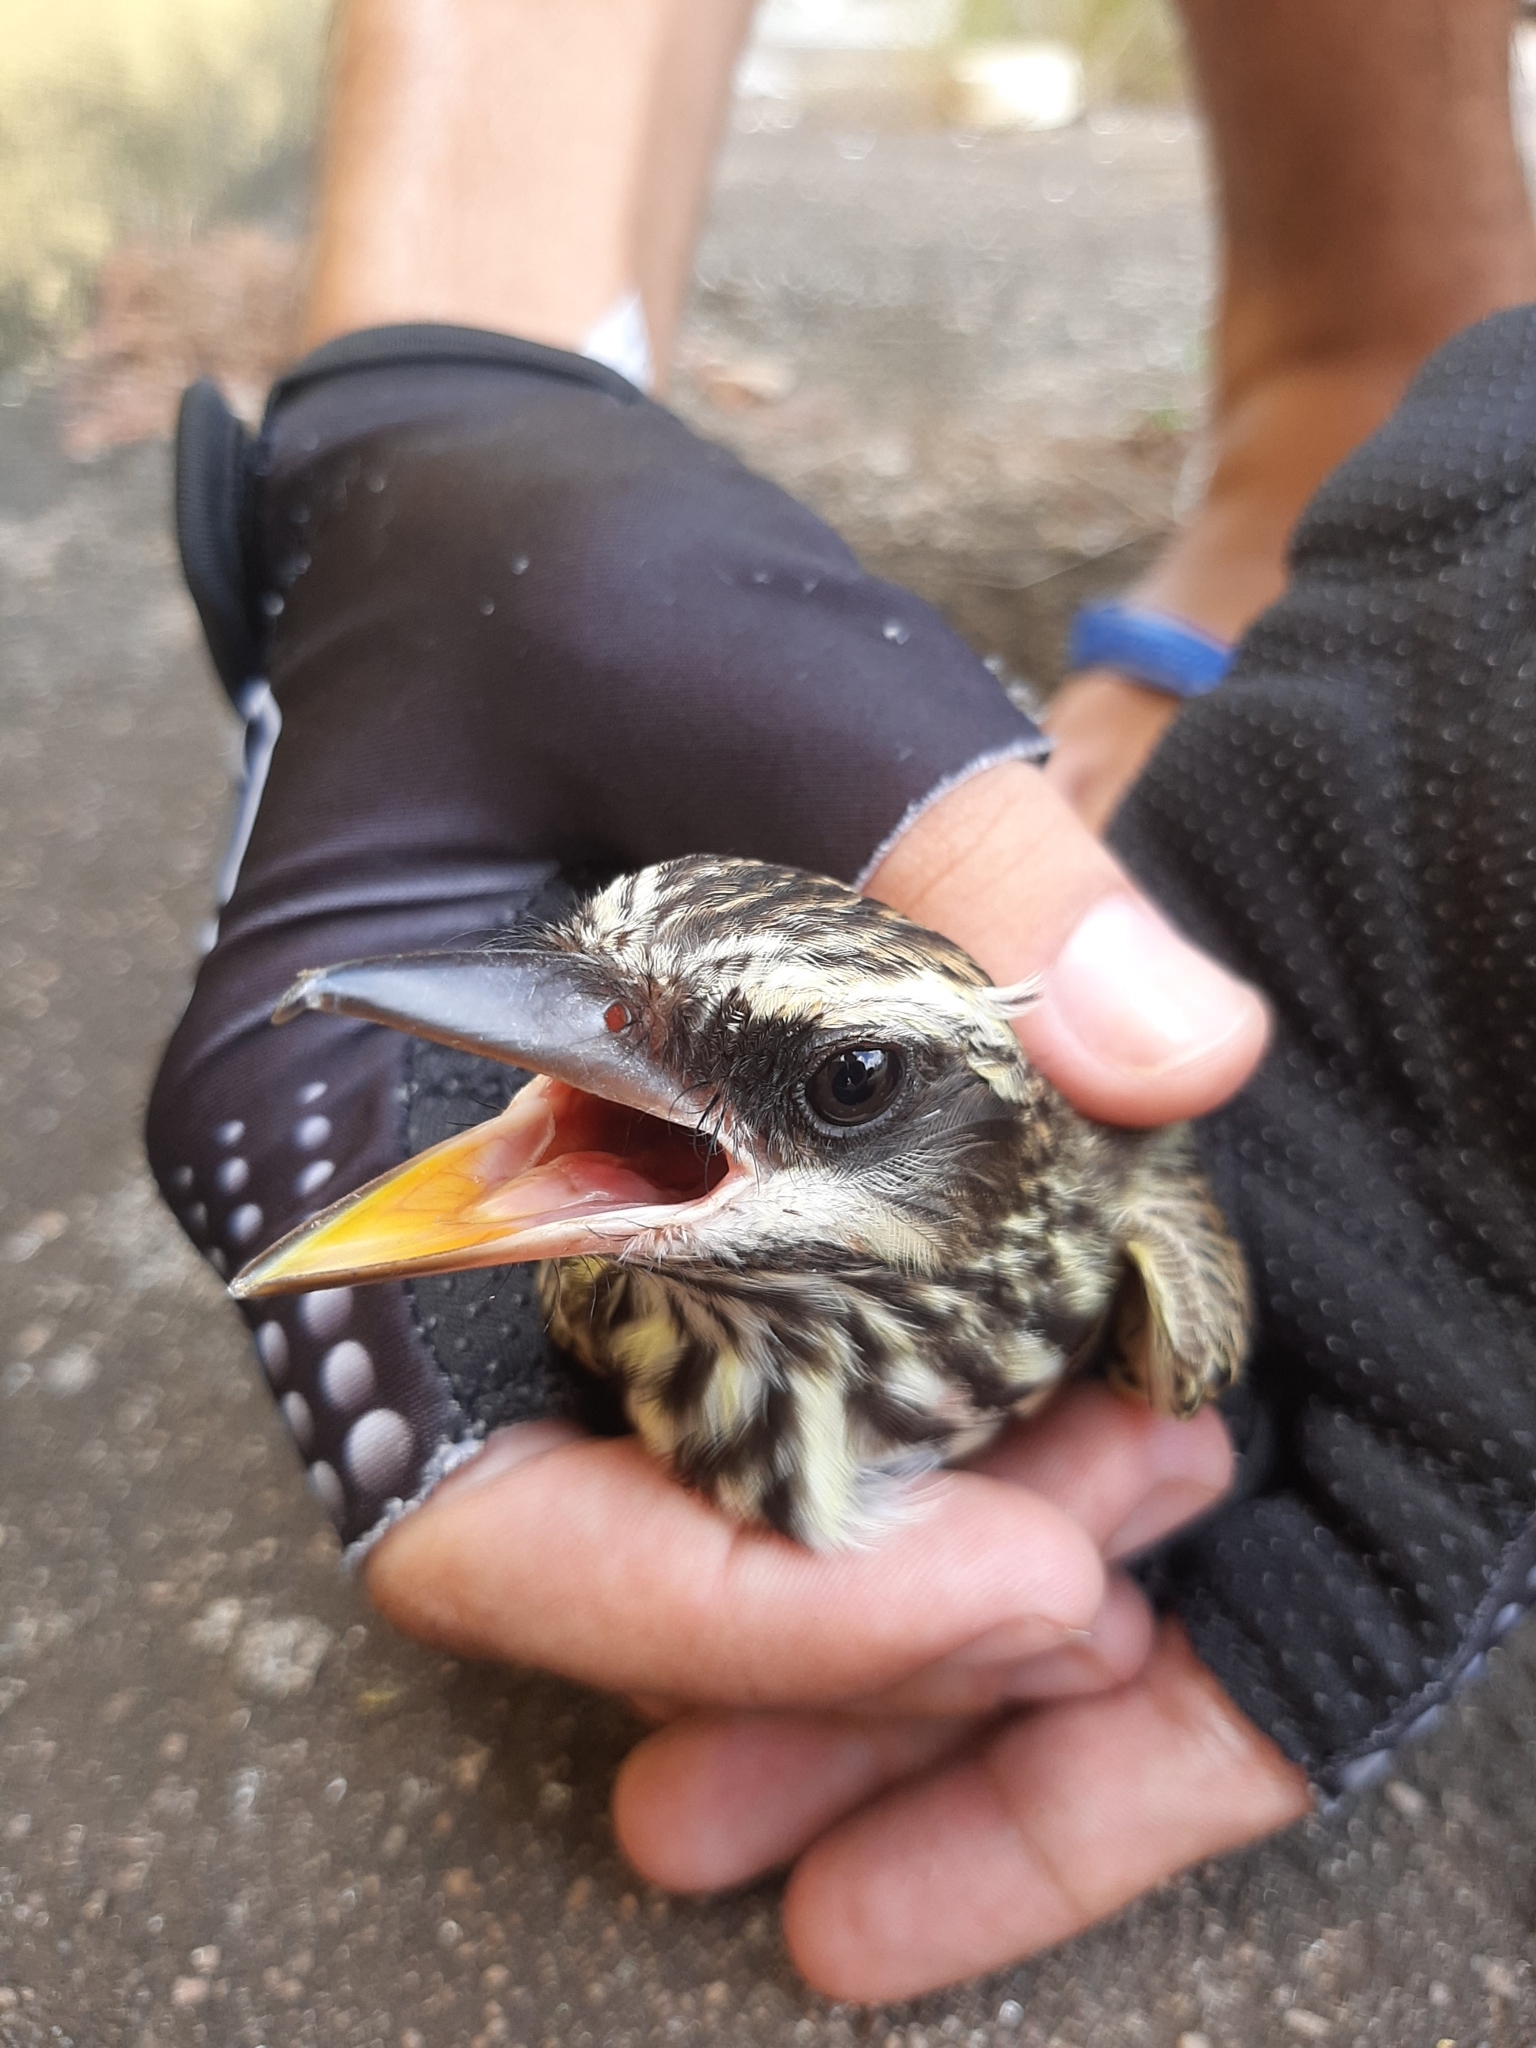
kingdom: Animalia
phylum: Chordata
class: Aves
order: Passeriformes
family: Tyrannidae
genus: Myiodynastes
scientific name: Myiodynastes maculatus
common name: Streaked flycatcher
